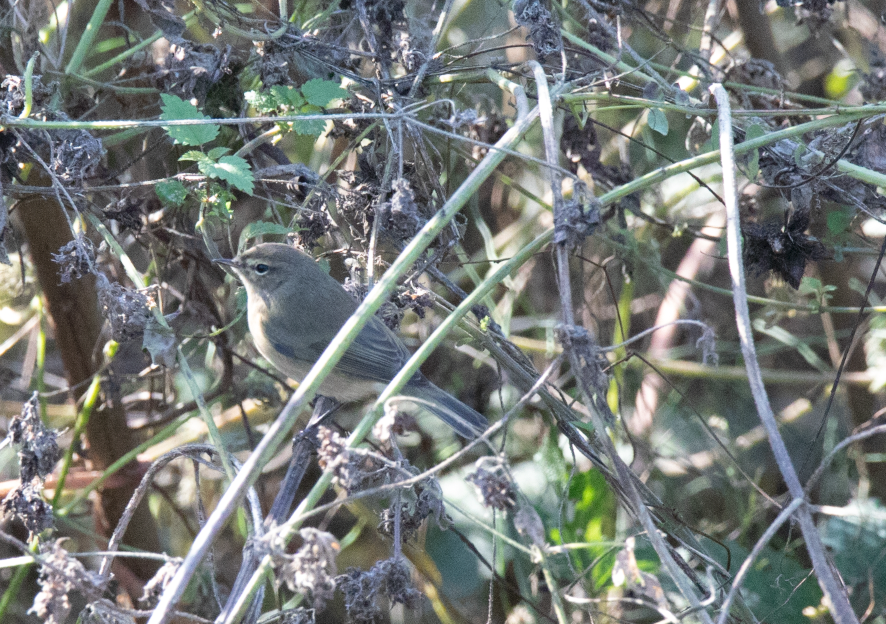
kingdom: Animalia
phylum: Chordata
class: Aves
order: Passeriformes
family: Phylloscopidae
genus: Phylloscopus
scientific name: Phylloscopus collybita
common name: Common chiffchaff
